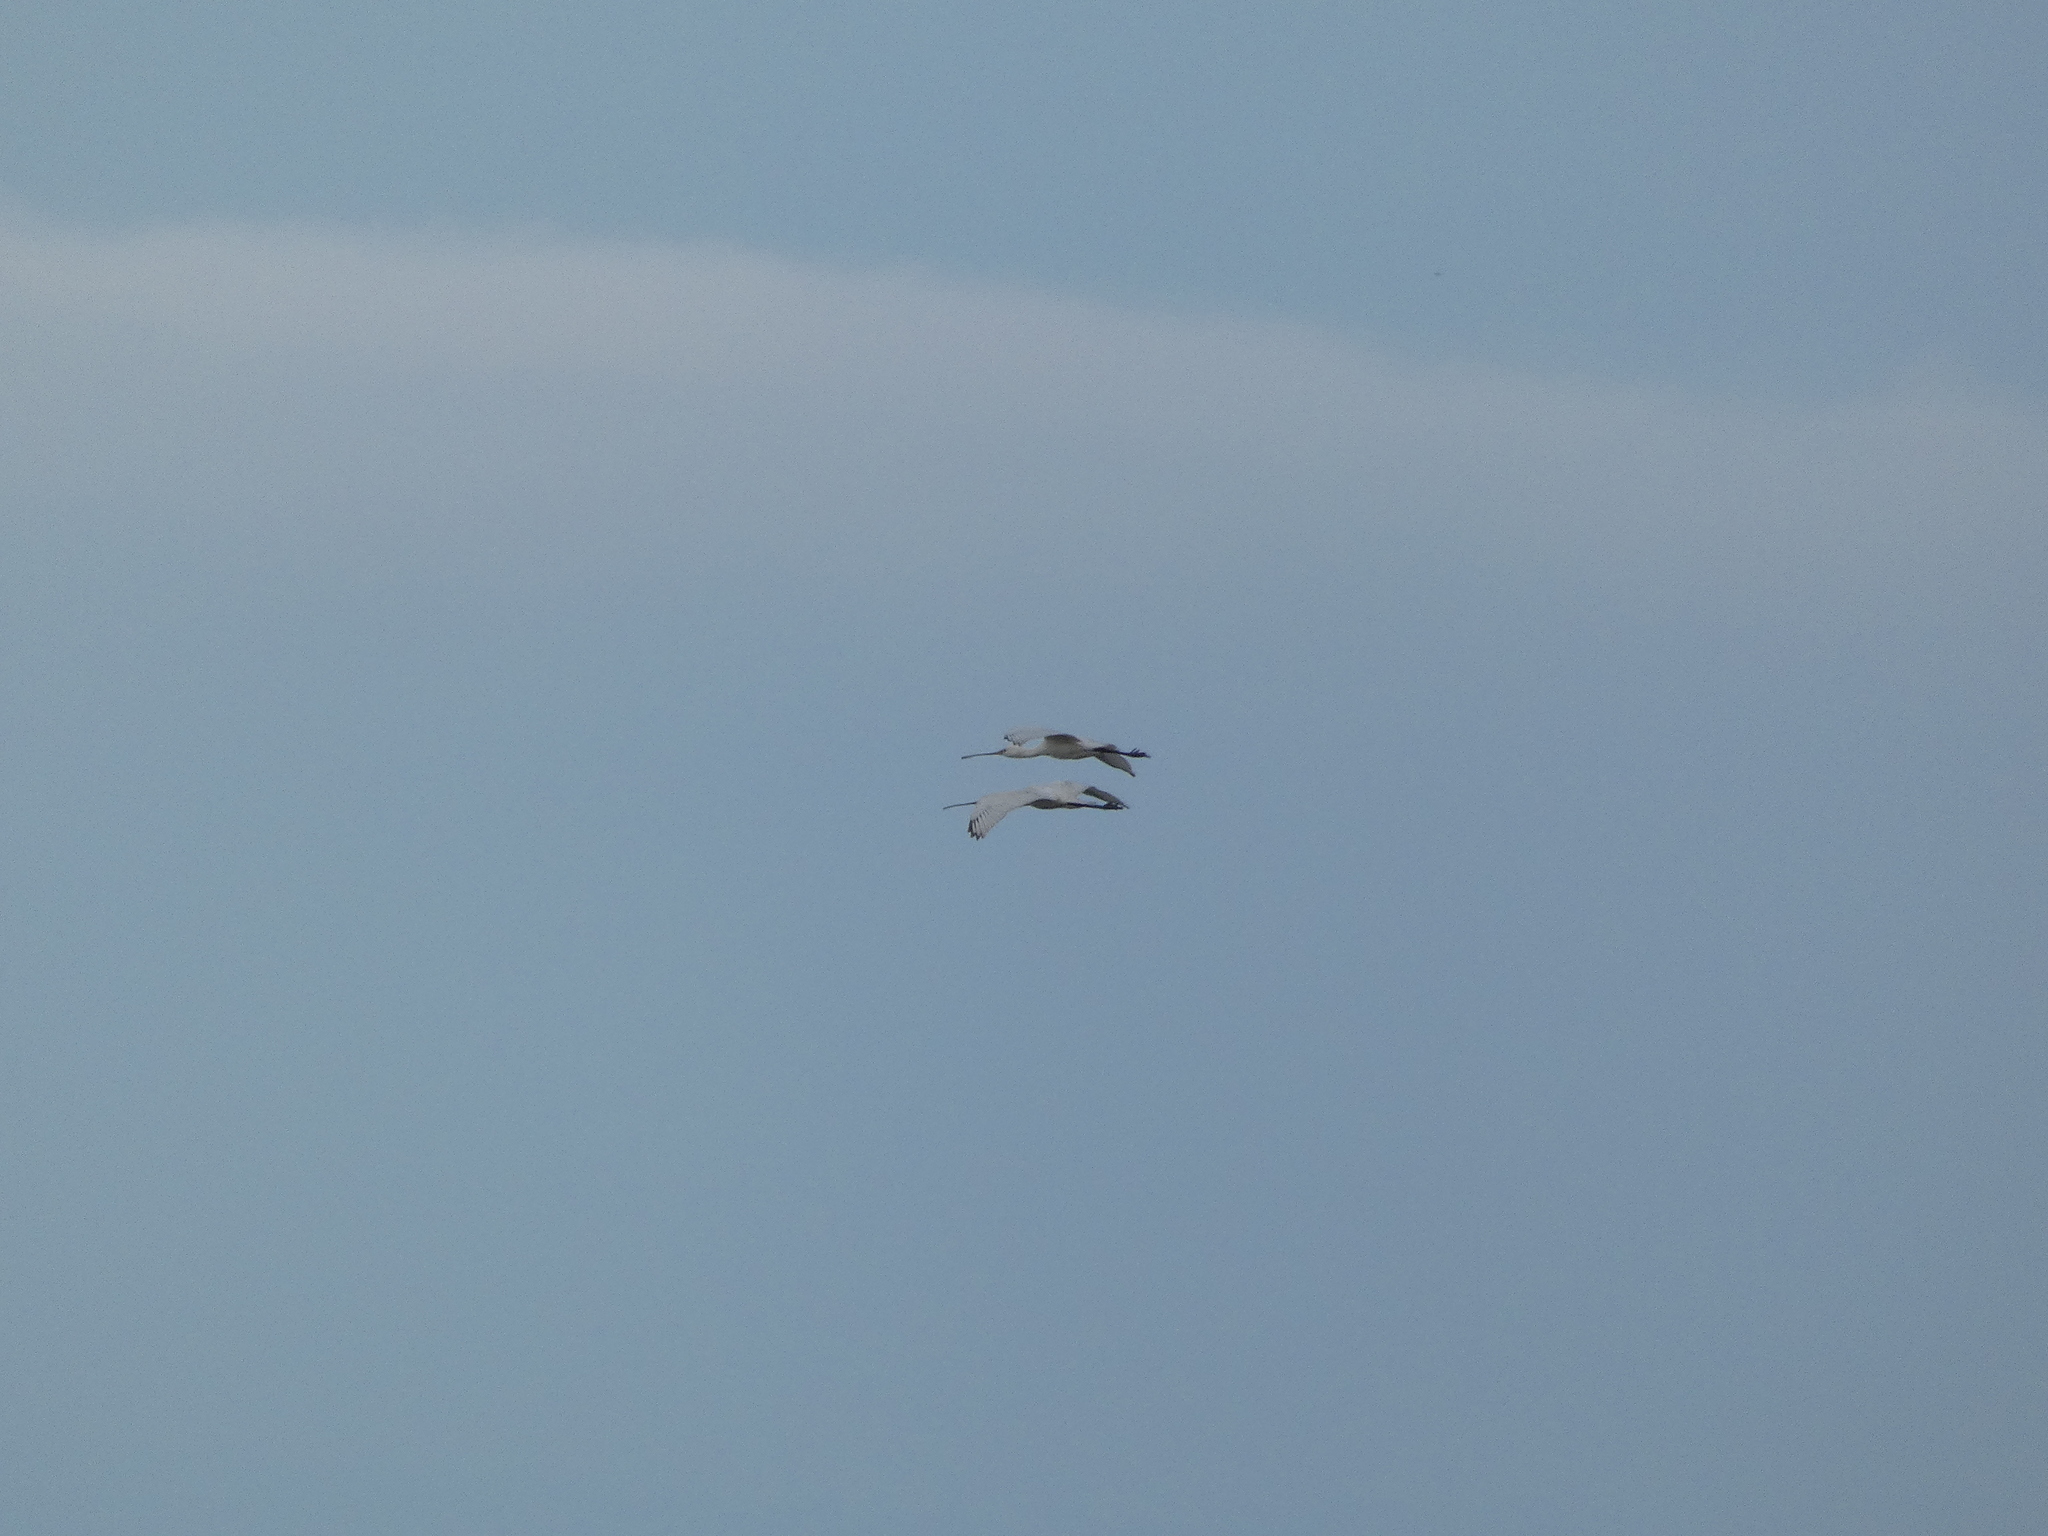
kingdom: Animalia
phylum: Chordata
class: Aves
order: Pelecaniformes
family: Threskiornithidae
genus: Platalea
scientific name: Platalea leucorodia
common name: Eurasian spoonbill
